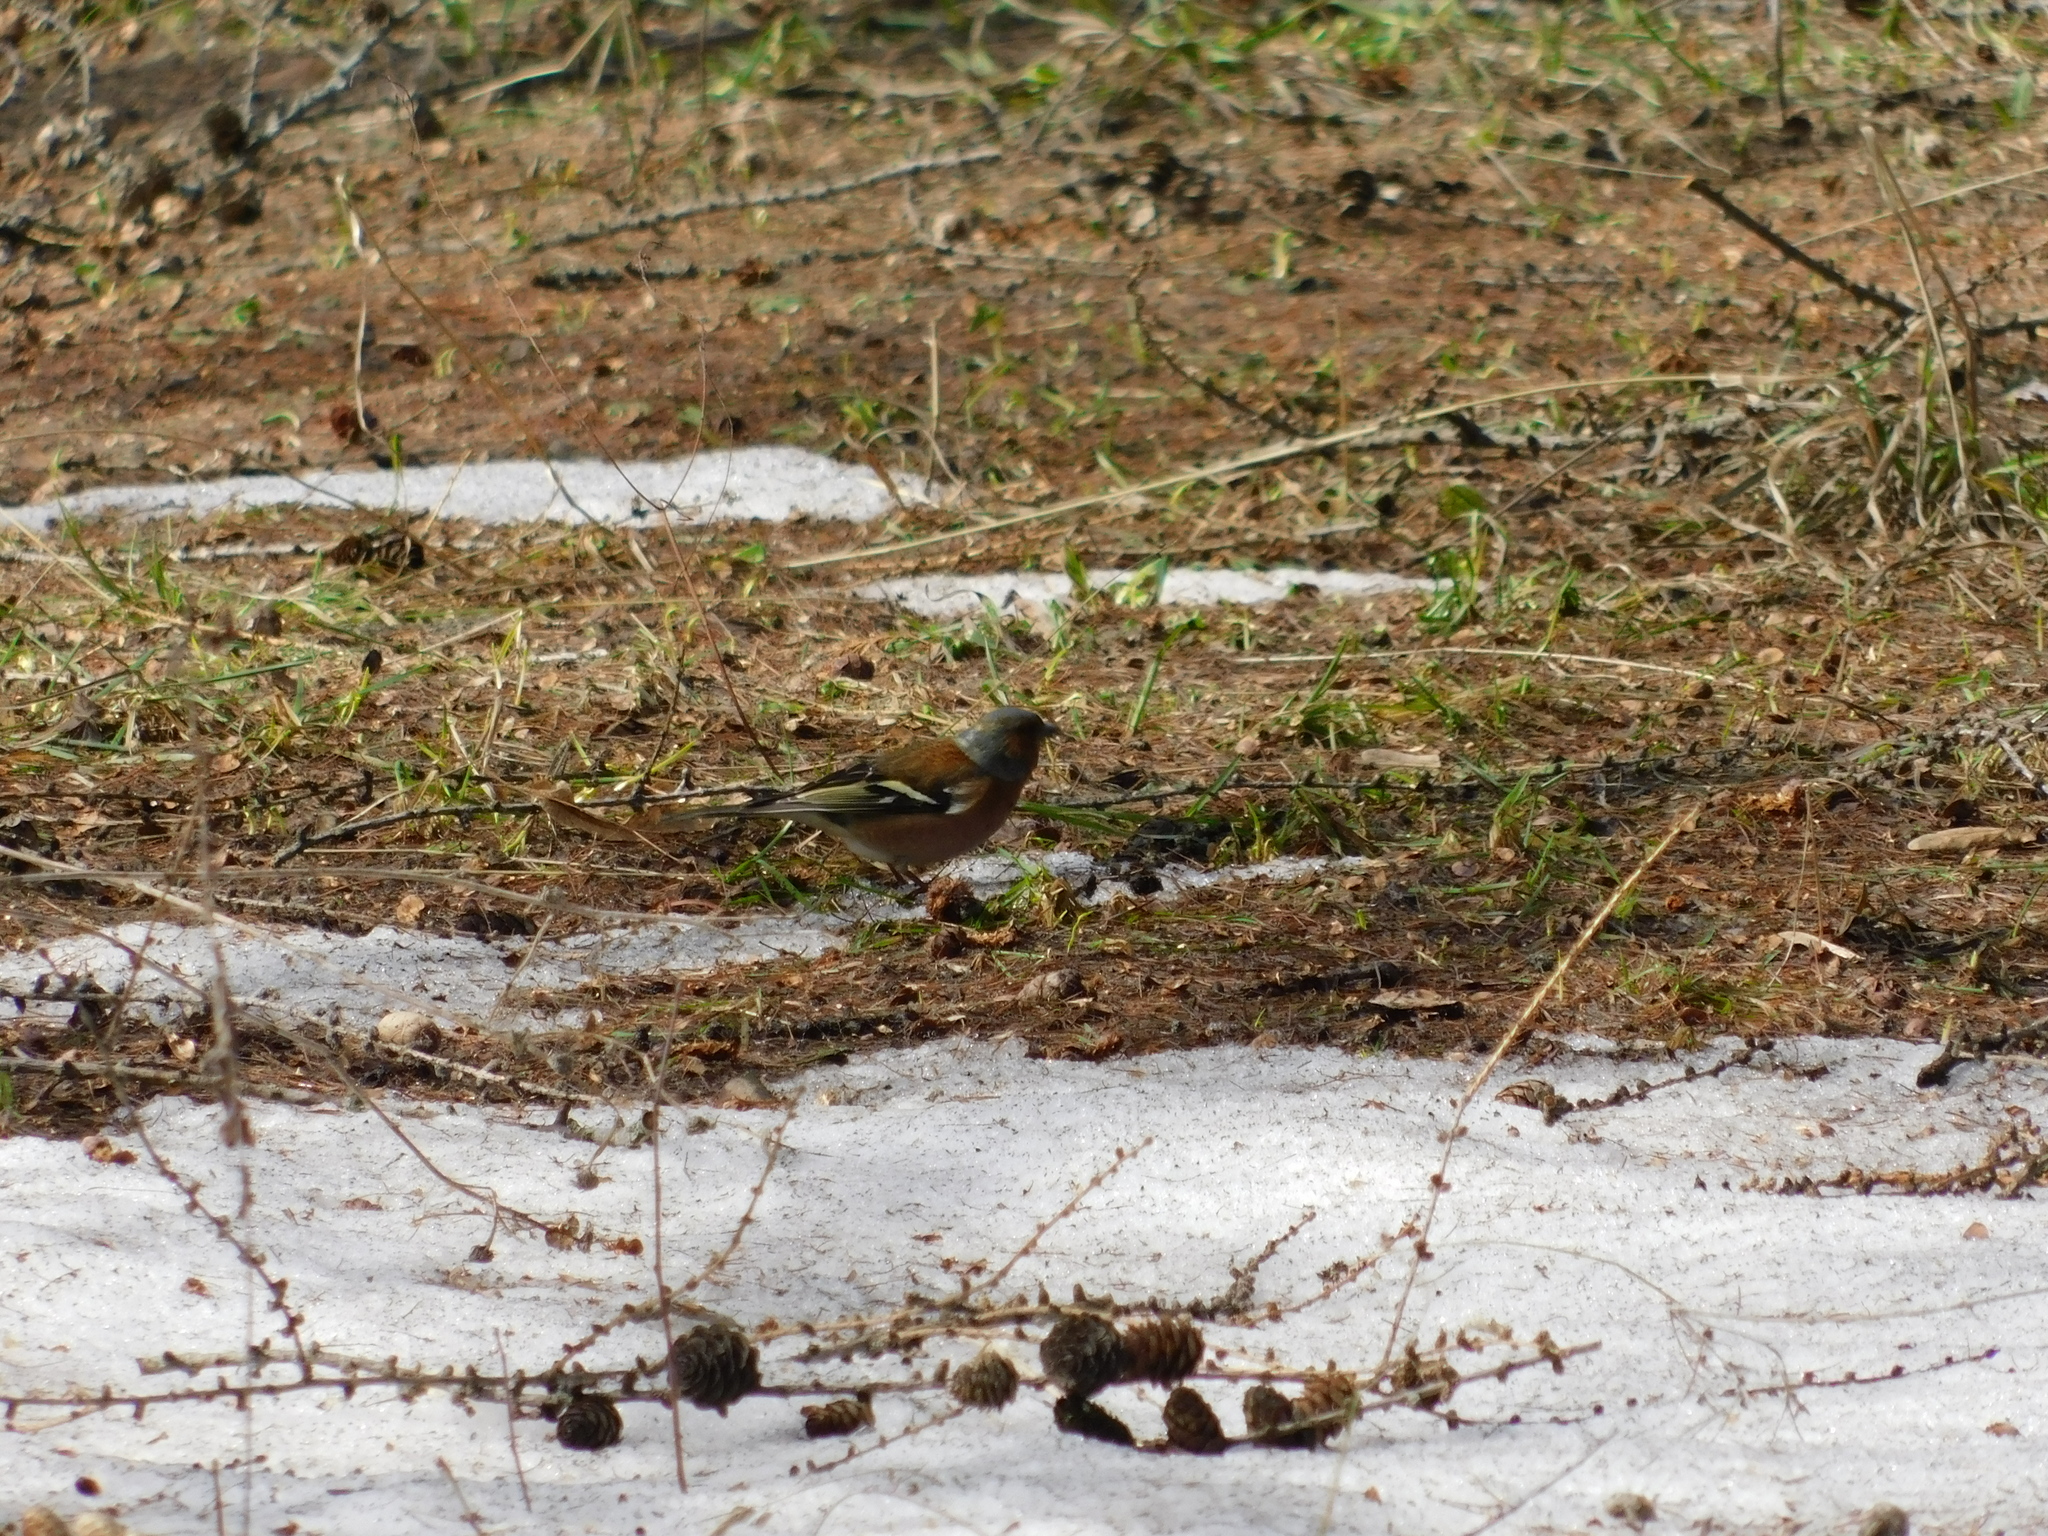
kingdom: Animalia
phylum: Chordata
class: Aves
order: Passeriformes
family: Fringillidae
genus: Fringilla
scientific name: Fringilla coelebs
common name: Common chaffinch
